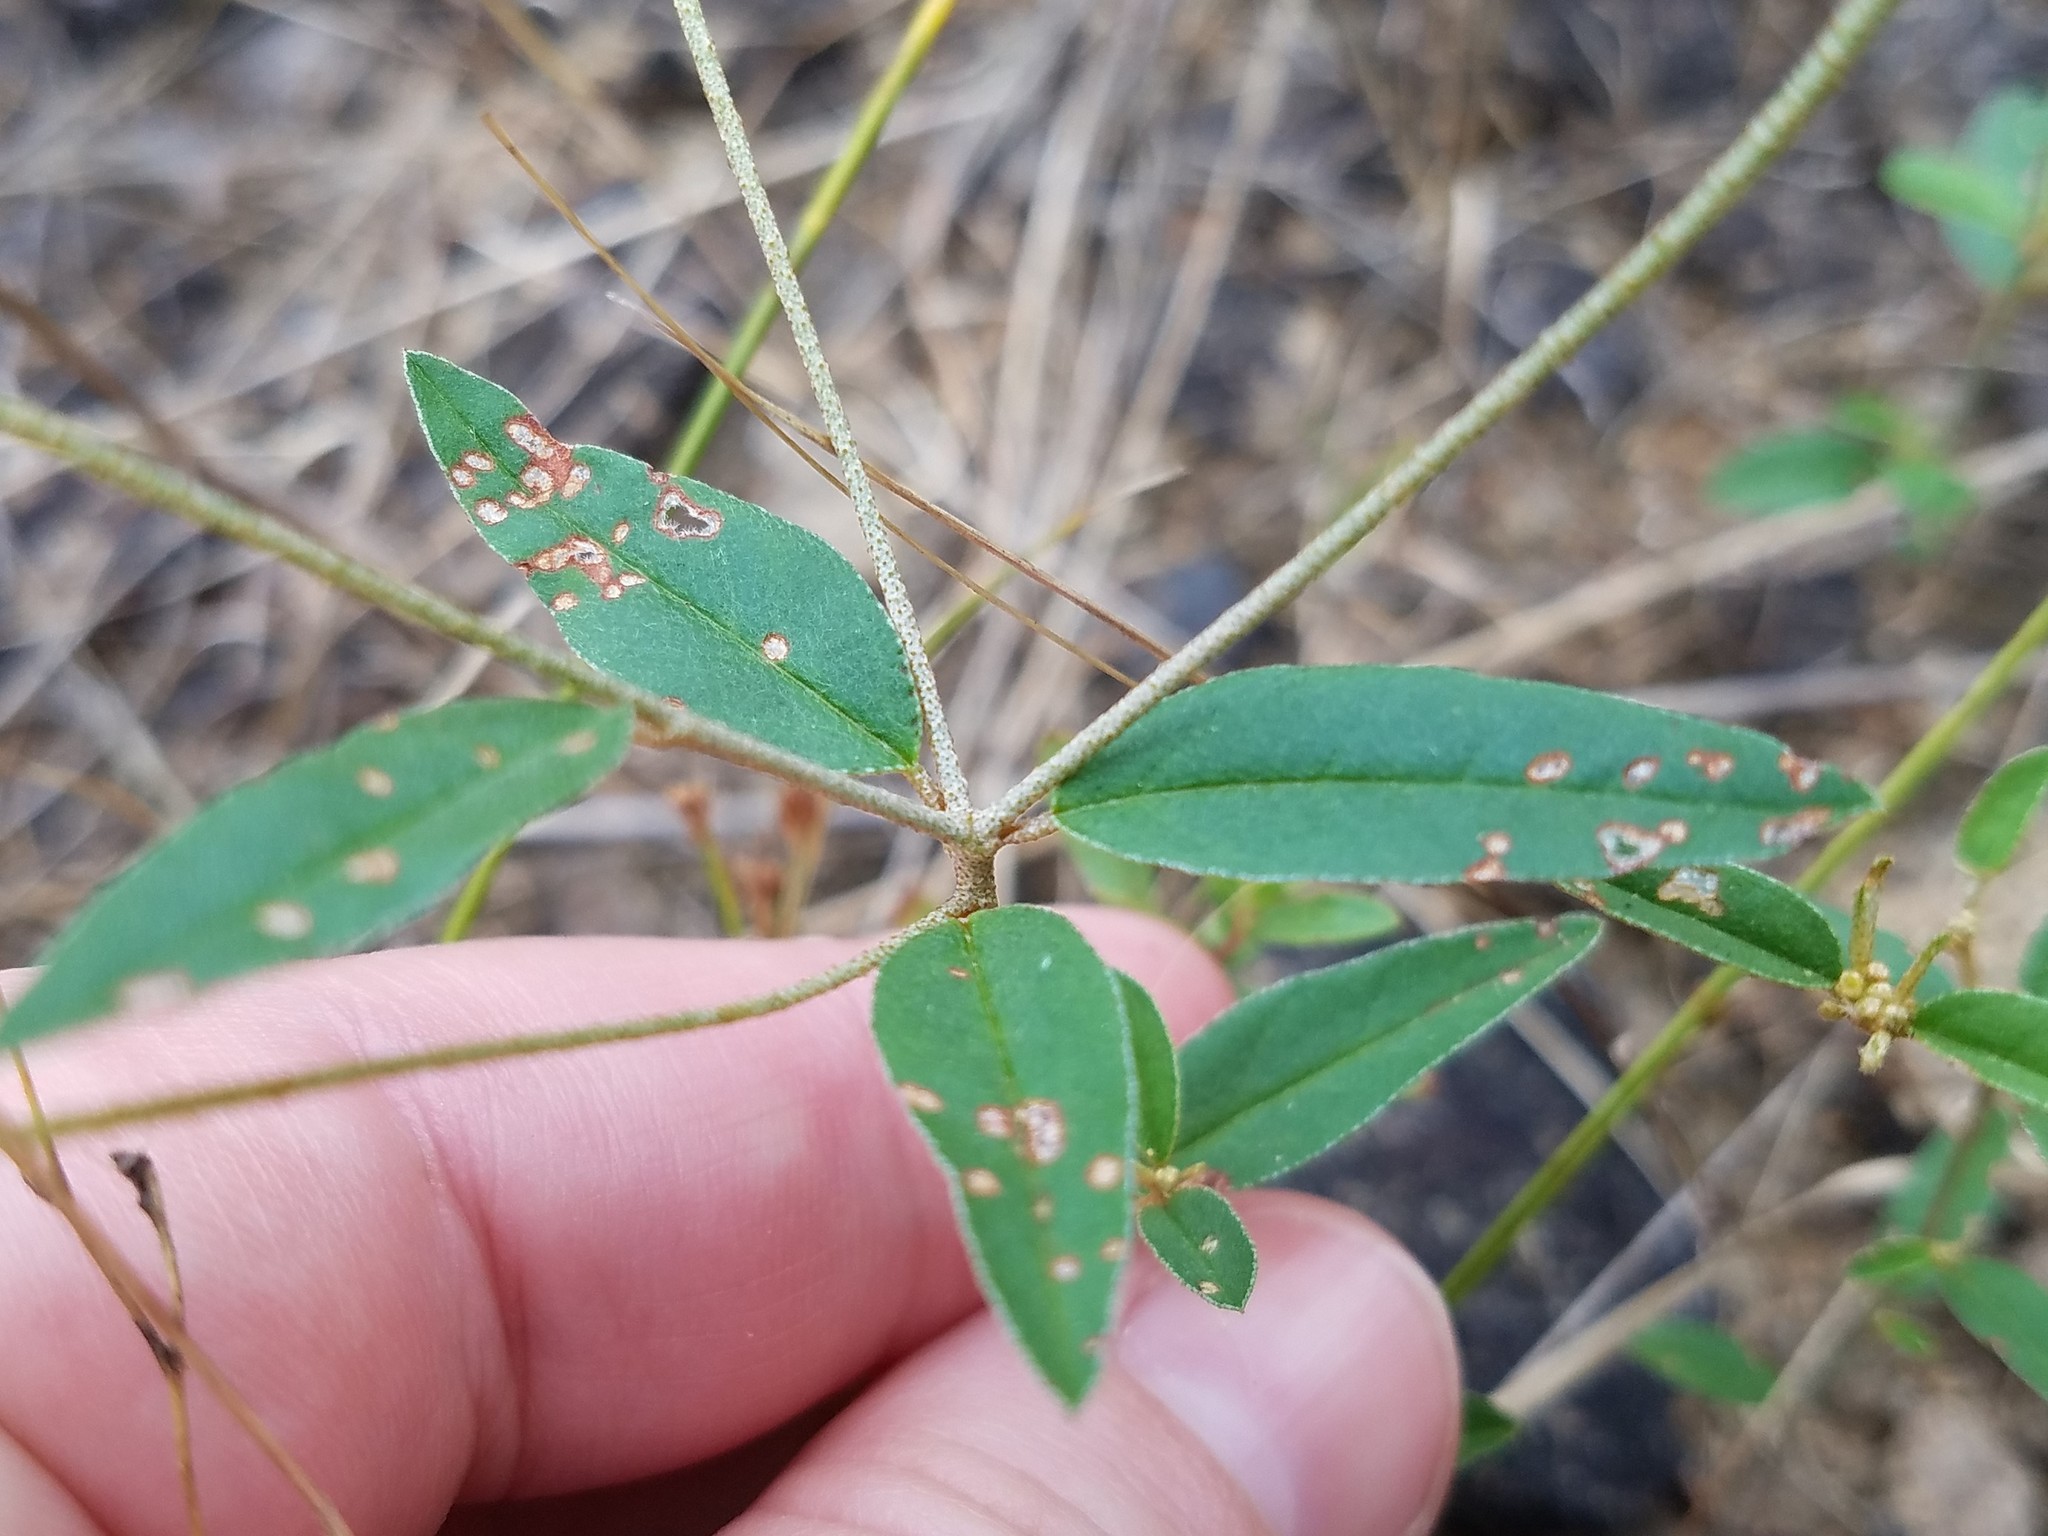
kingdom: Plantae
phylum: Tracheophyta
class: Magnoliopsida
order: Malpighiales
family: Euphorbiaceae
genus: Croton
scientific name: Croton michauxii
